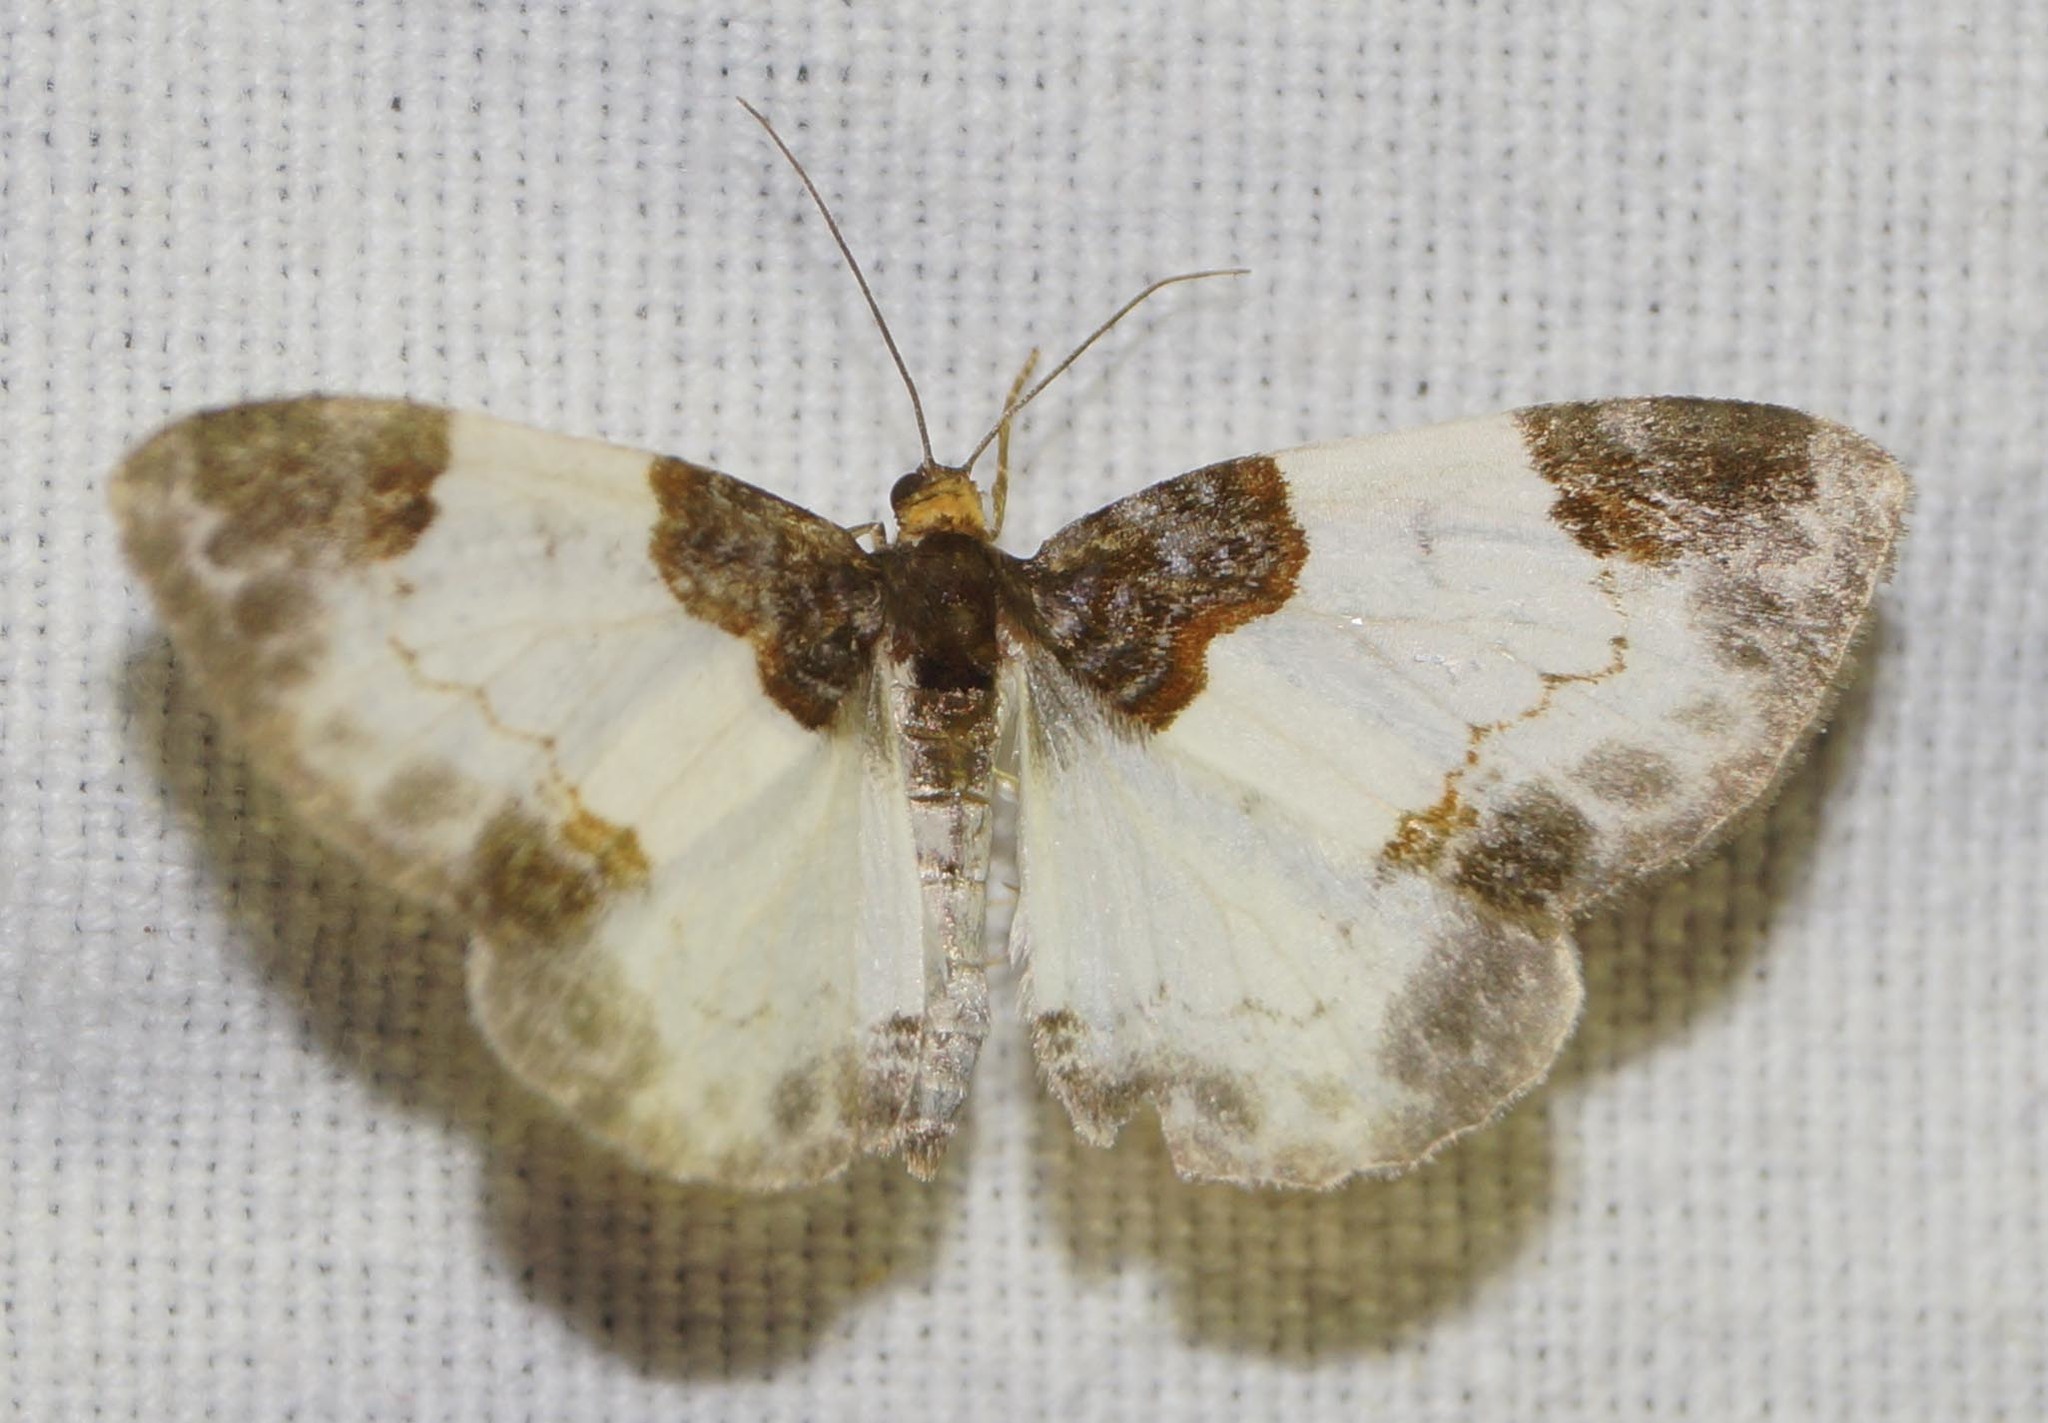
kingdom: Animalia
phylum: Arthropoda
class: Insecta
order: Lepidoptera
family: Geometridae
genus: Mesoleuca
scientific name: Mesoleuca albicillata
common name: Beautiful carpet
